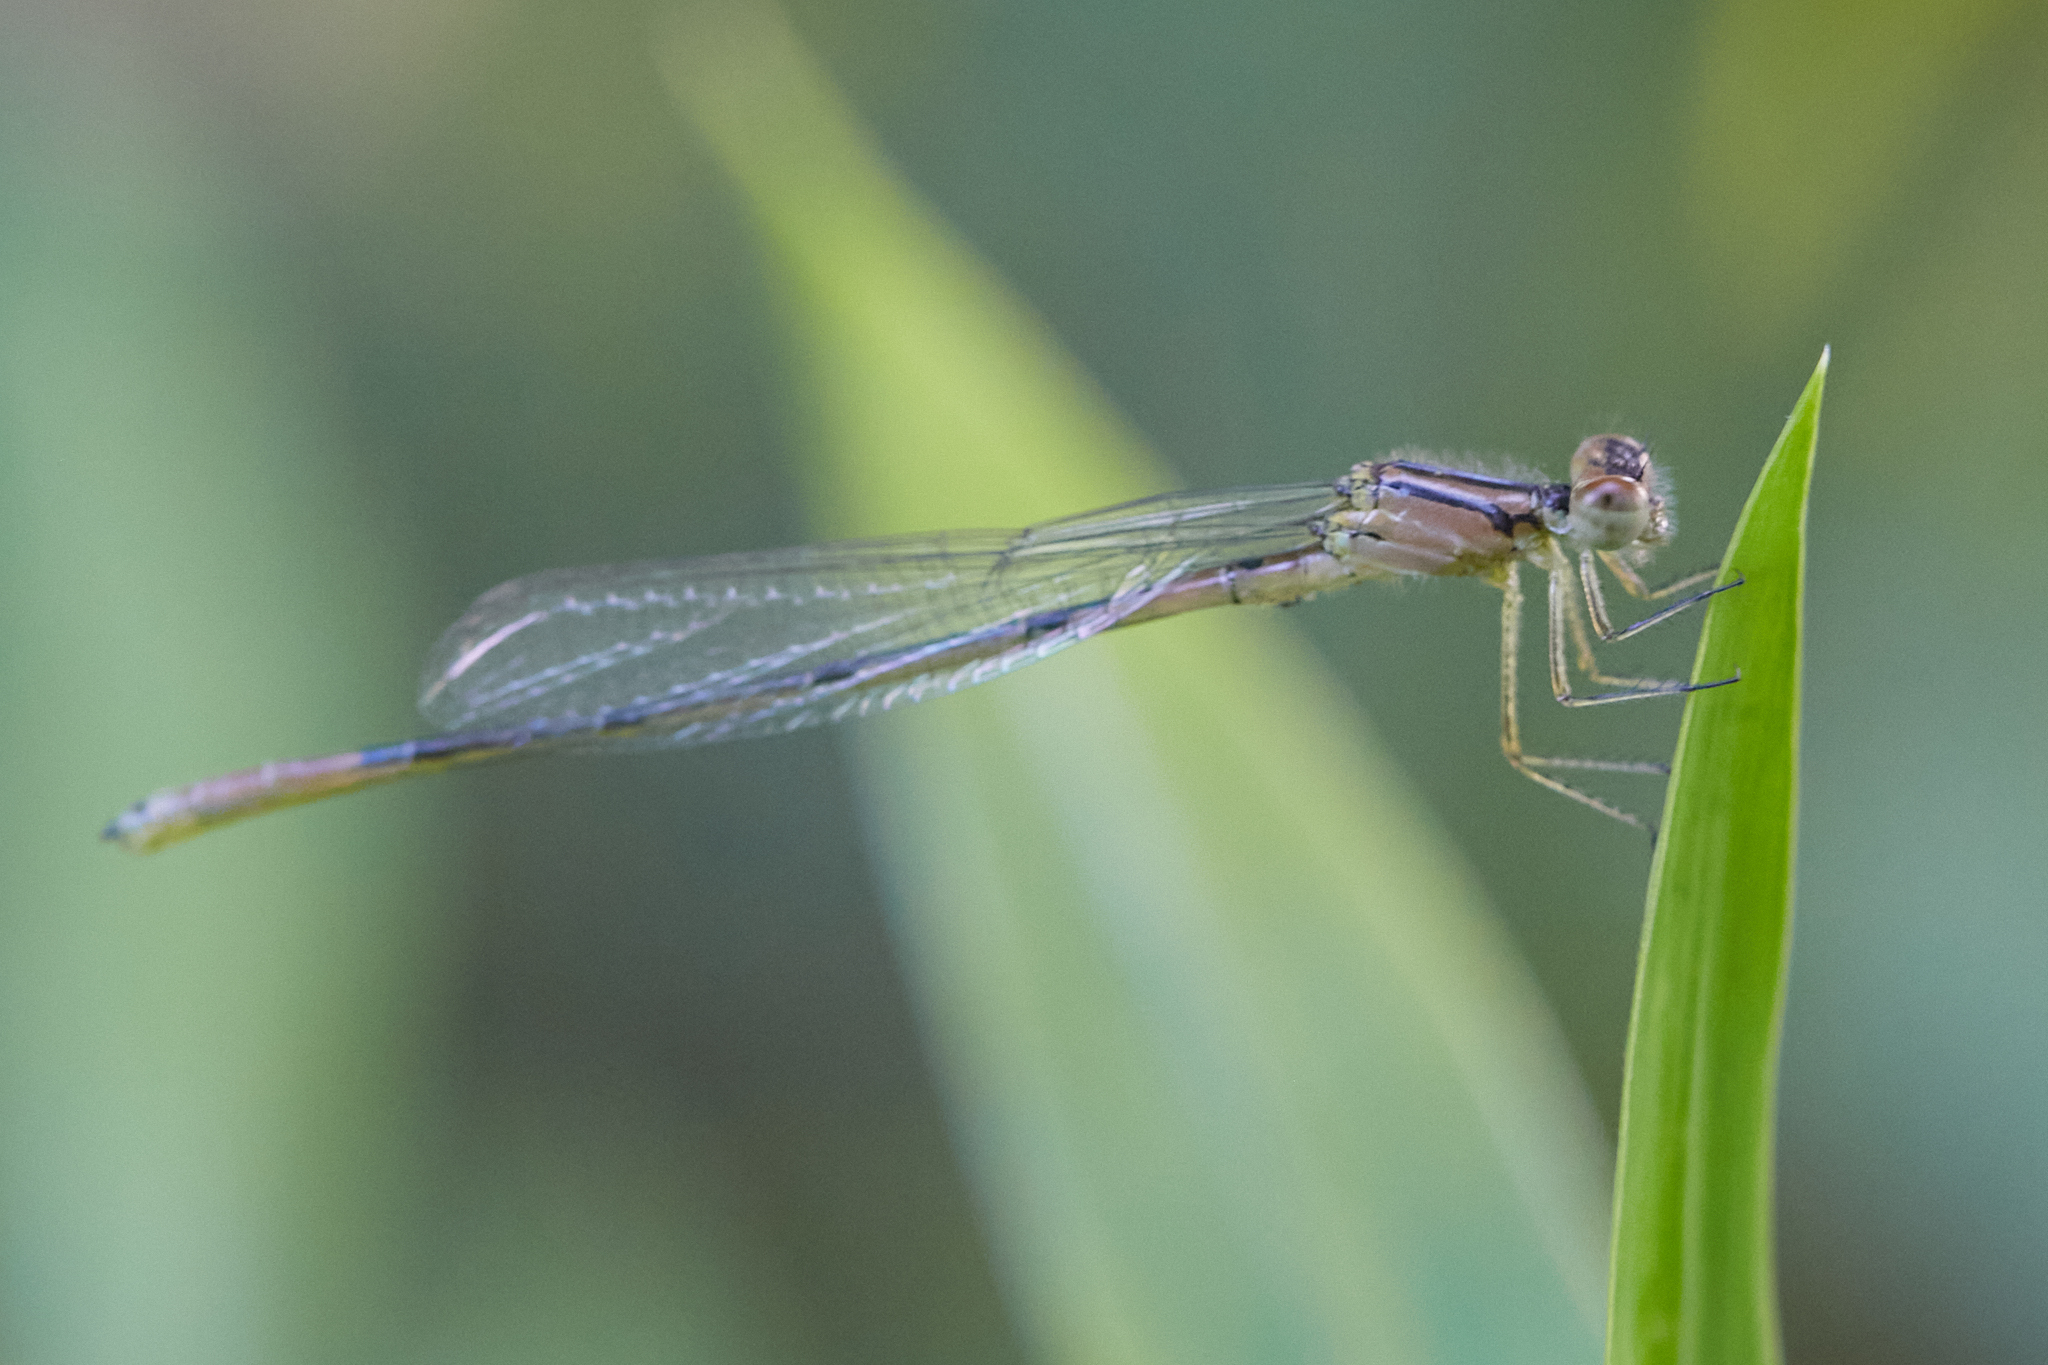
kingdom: Animalia
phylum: Arthropoda
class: Insecta
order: Odonata
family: Coenagrionidae
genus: Enallagma
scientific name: Enallagma aspersum
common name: Azure bluet
